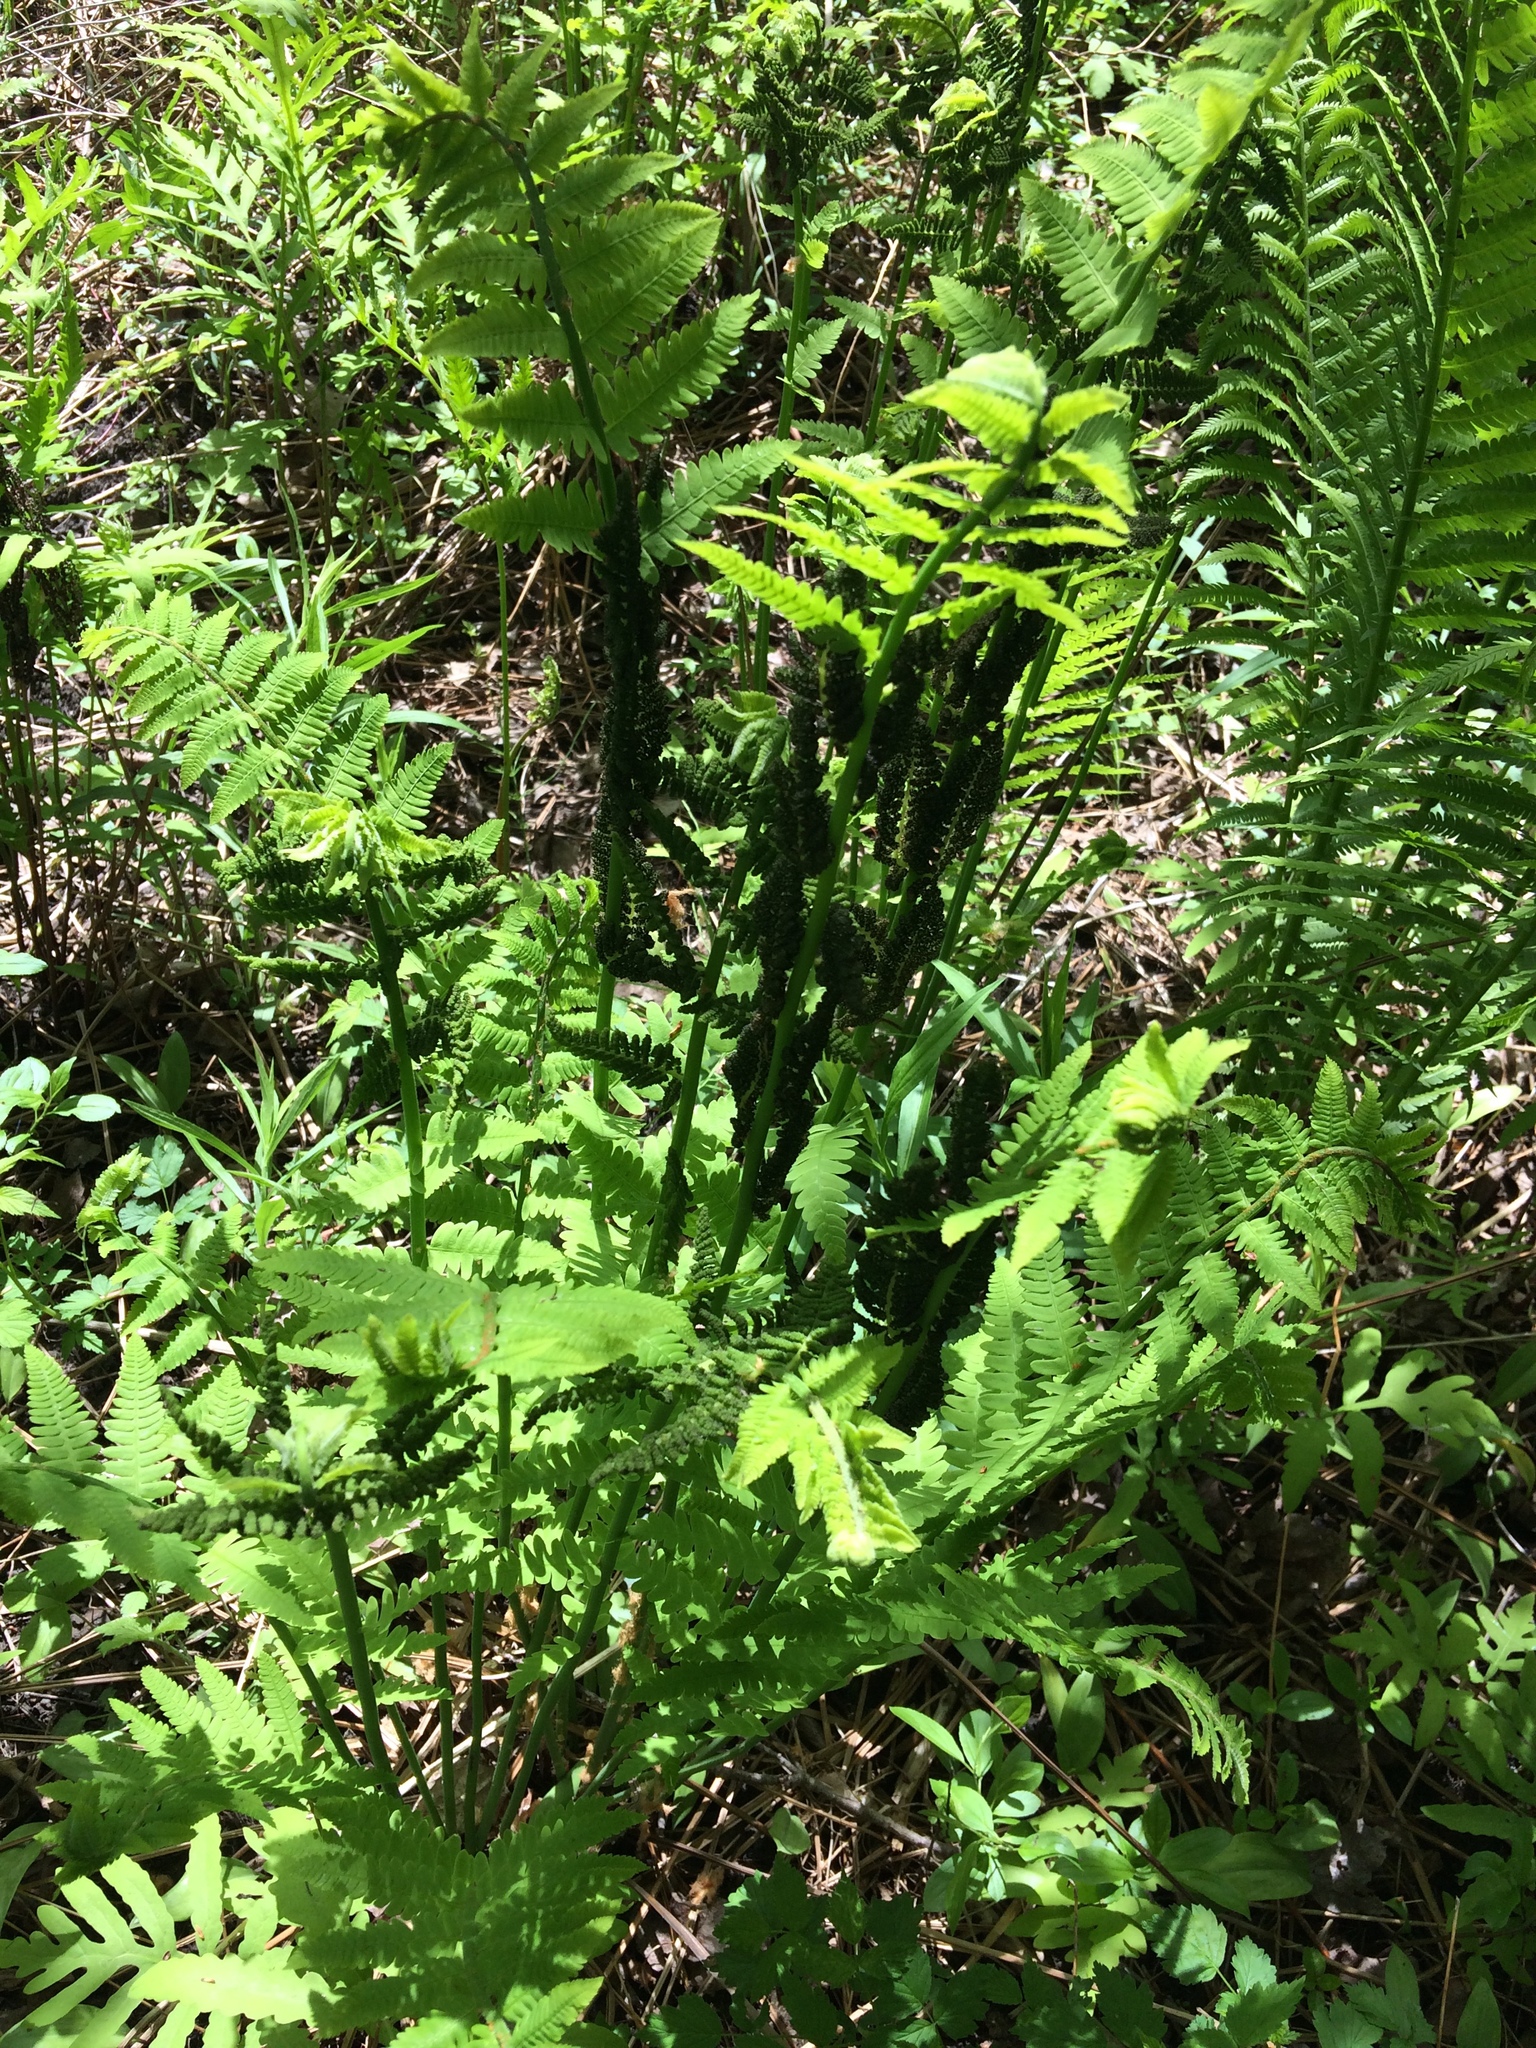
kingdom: Plantae
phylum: Tracheophyta
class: Polypodiopsida
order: Osmundales
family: Osmundaceae
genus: Claytosmunda
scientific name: Claytosmunda claytoniana
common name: Clayton's fern
